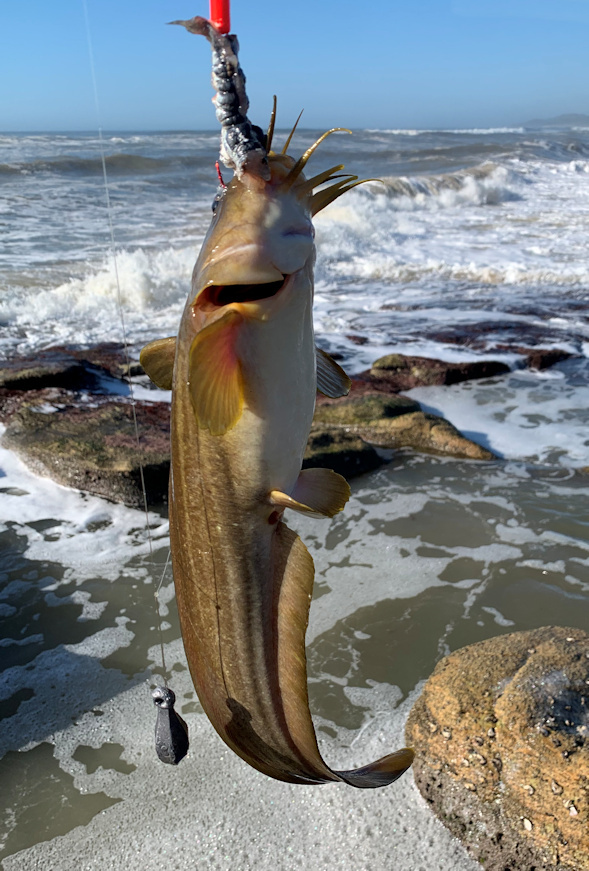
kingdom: Animalia
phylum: Chordata
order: Siluriformes
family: Plotosidae
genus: Plotosus
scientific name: Plotosus nkunga
